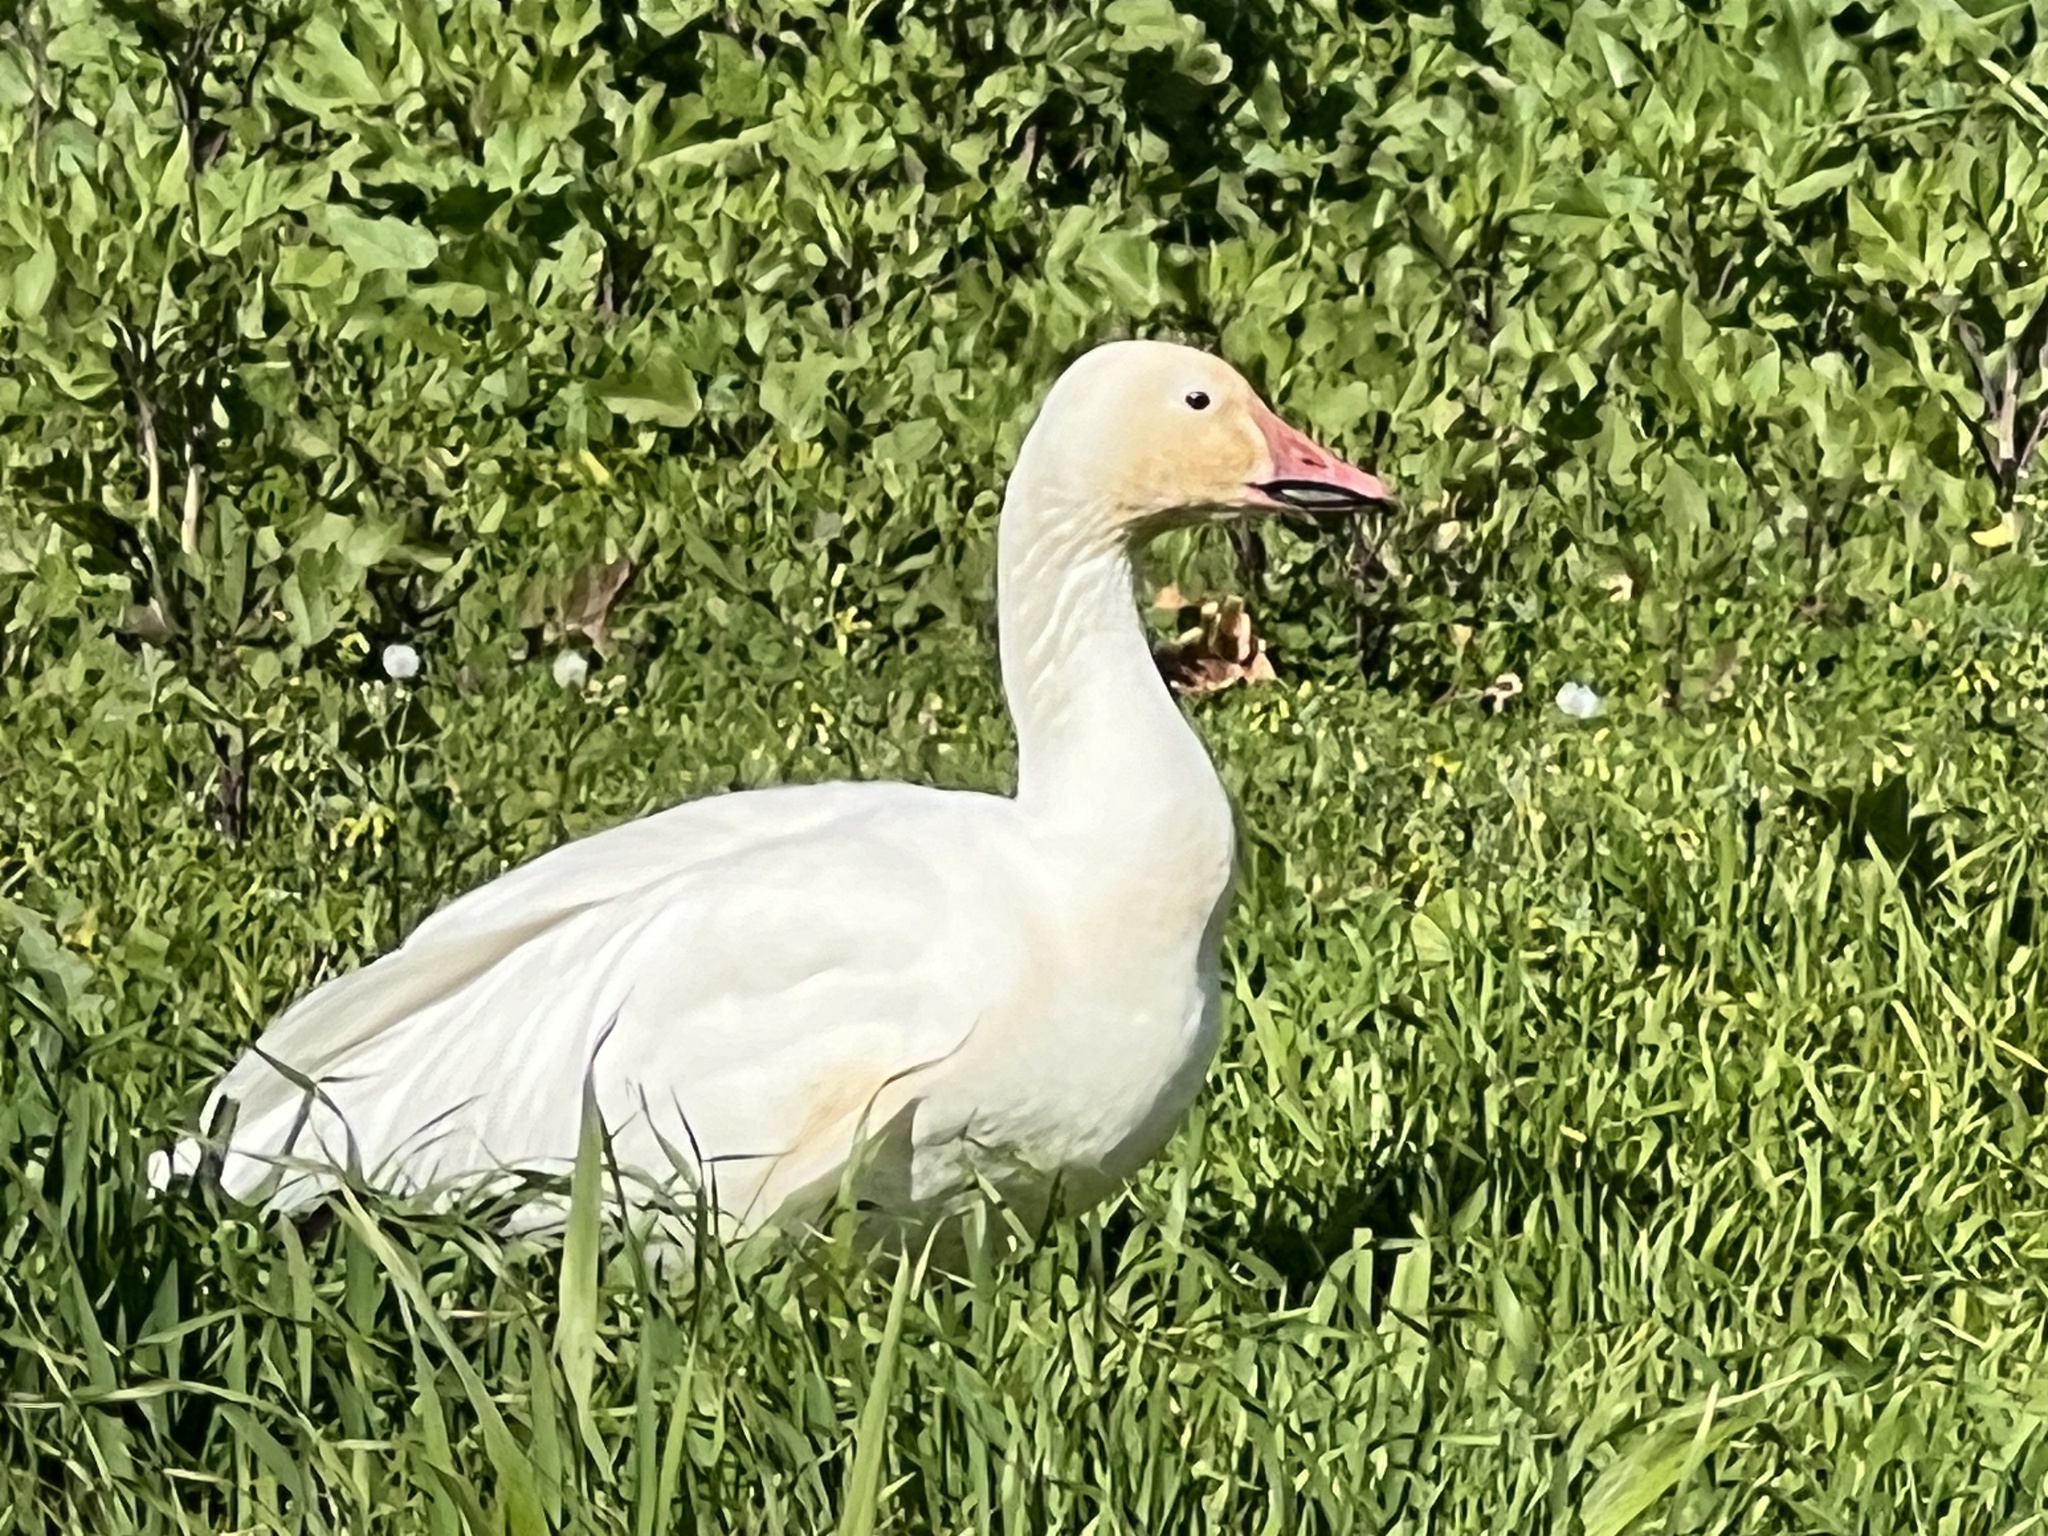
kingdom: Animalia
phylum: Chordata
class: Aves
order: Anseriformes
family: Anatidae
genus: Anser
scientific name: Anser caerulescens
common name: Snow goose
